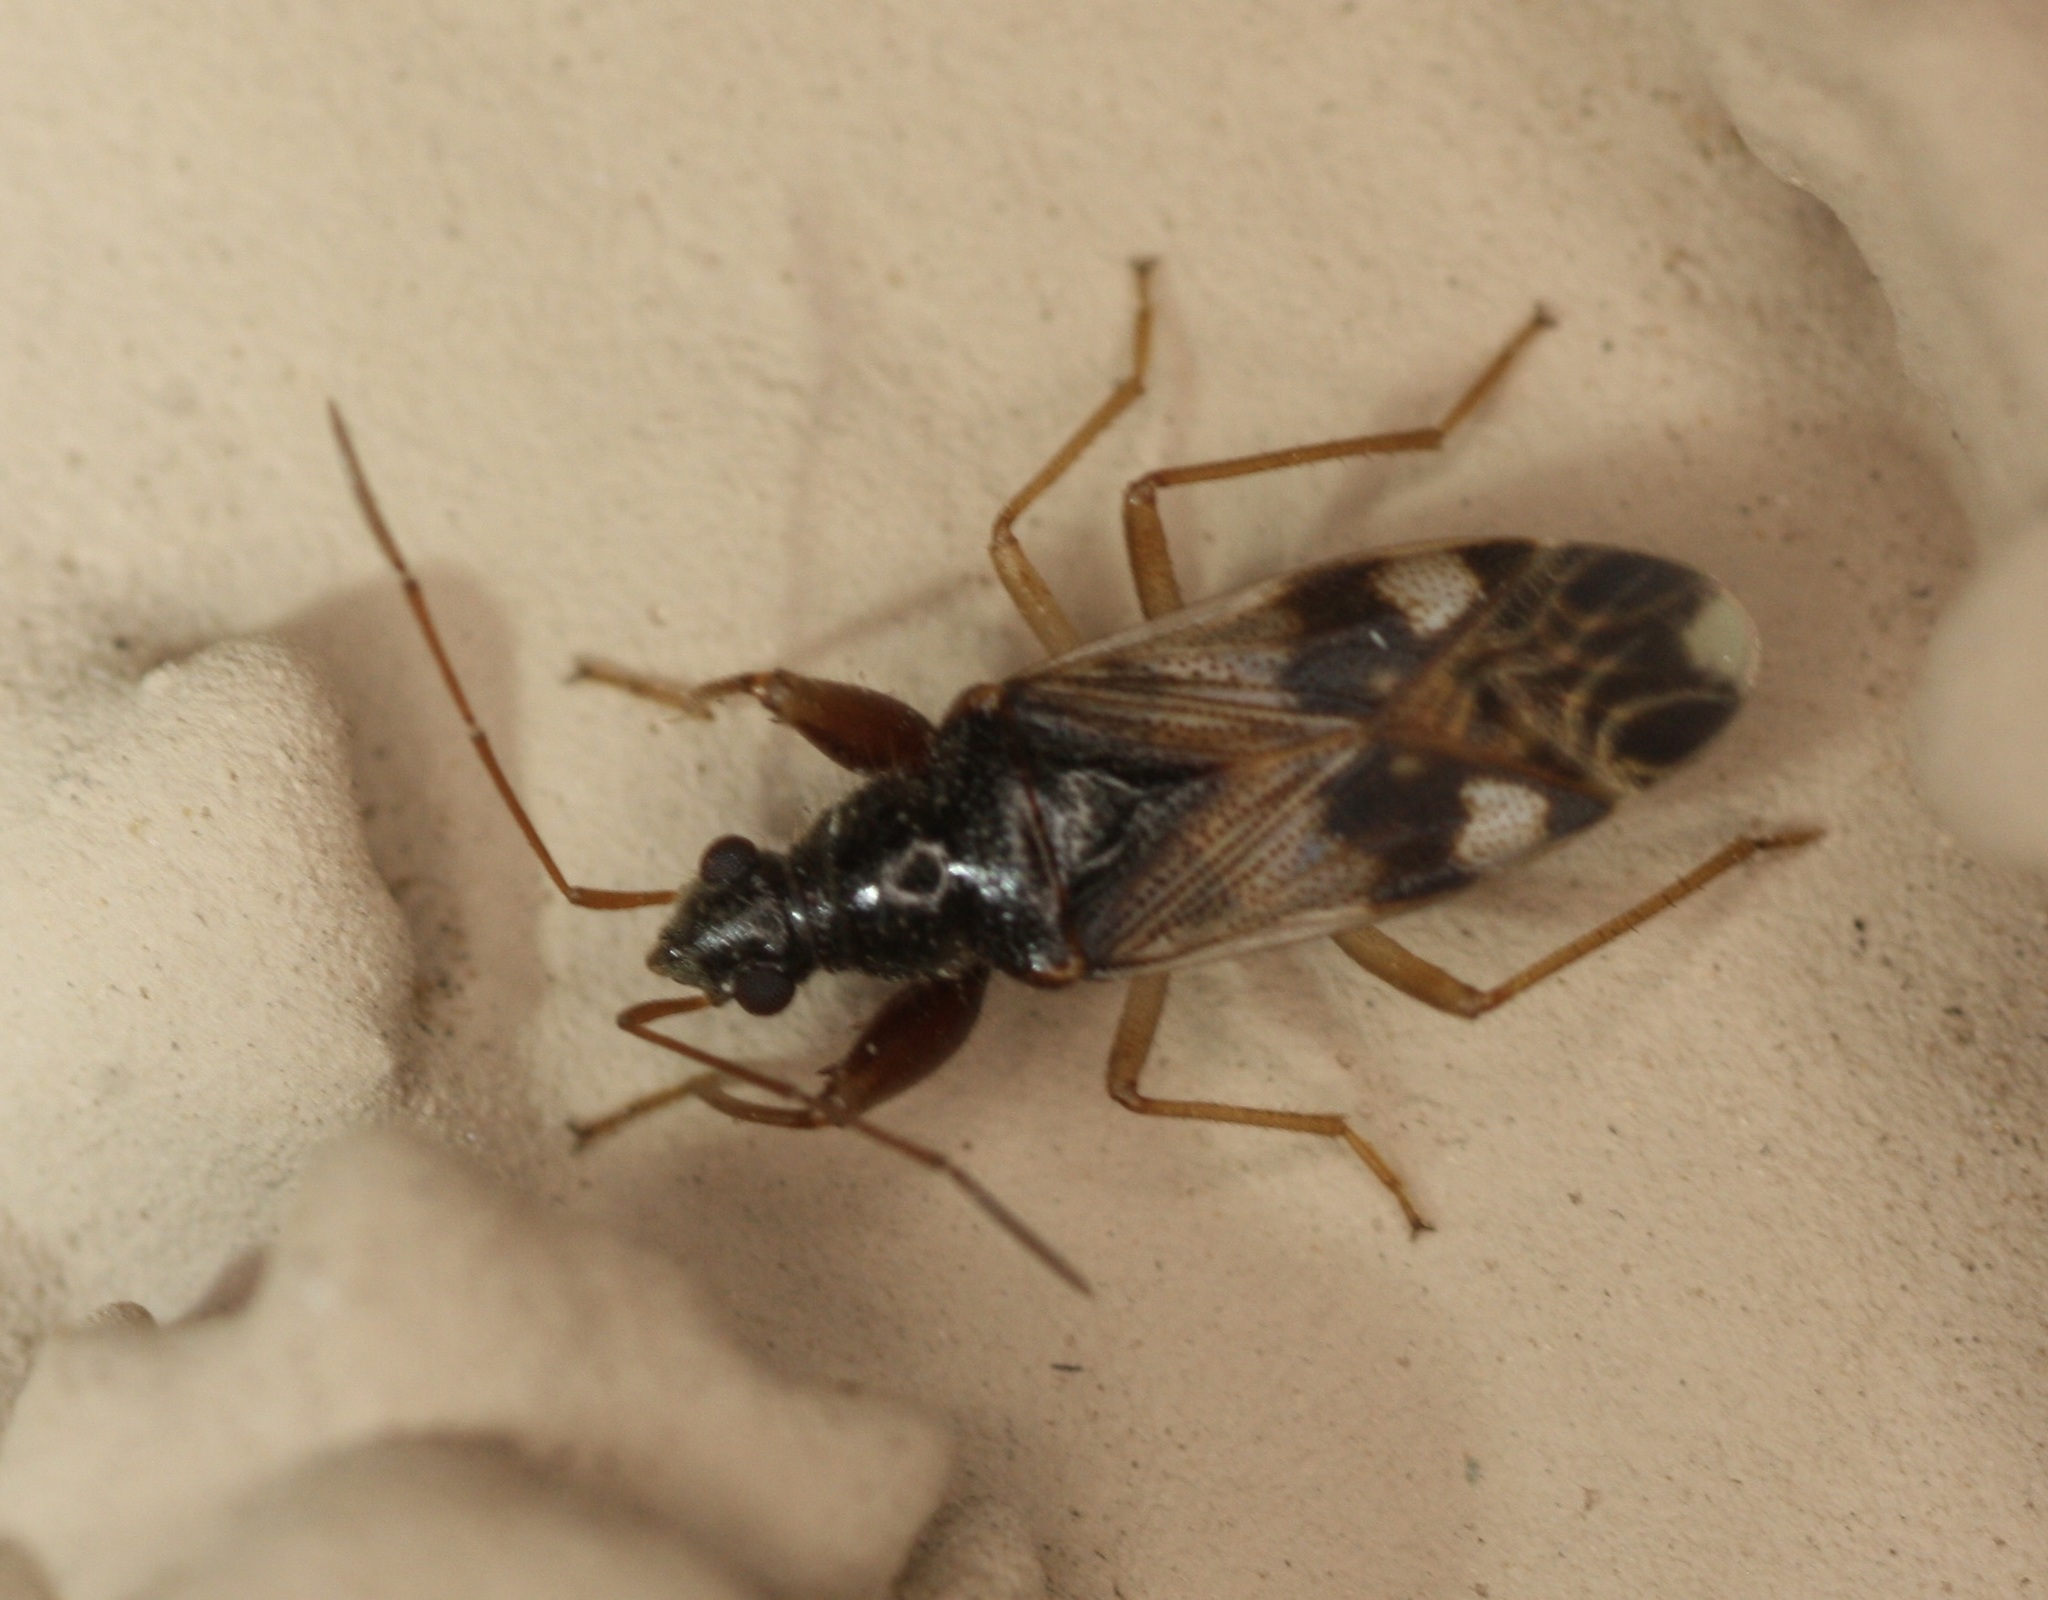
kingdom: Animalia
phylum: Arthropoda
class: Insecta
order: Hemiptera
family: Rhyparochromidae
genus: Pseudopamera
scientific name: Pseudopamera nitidula
